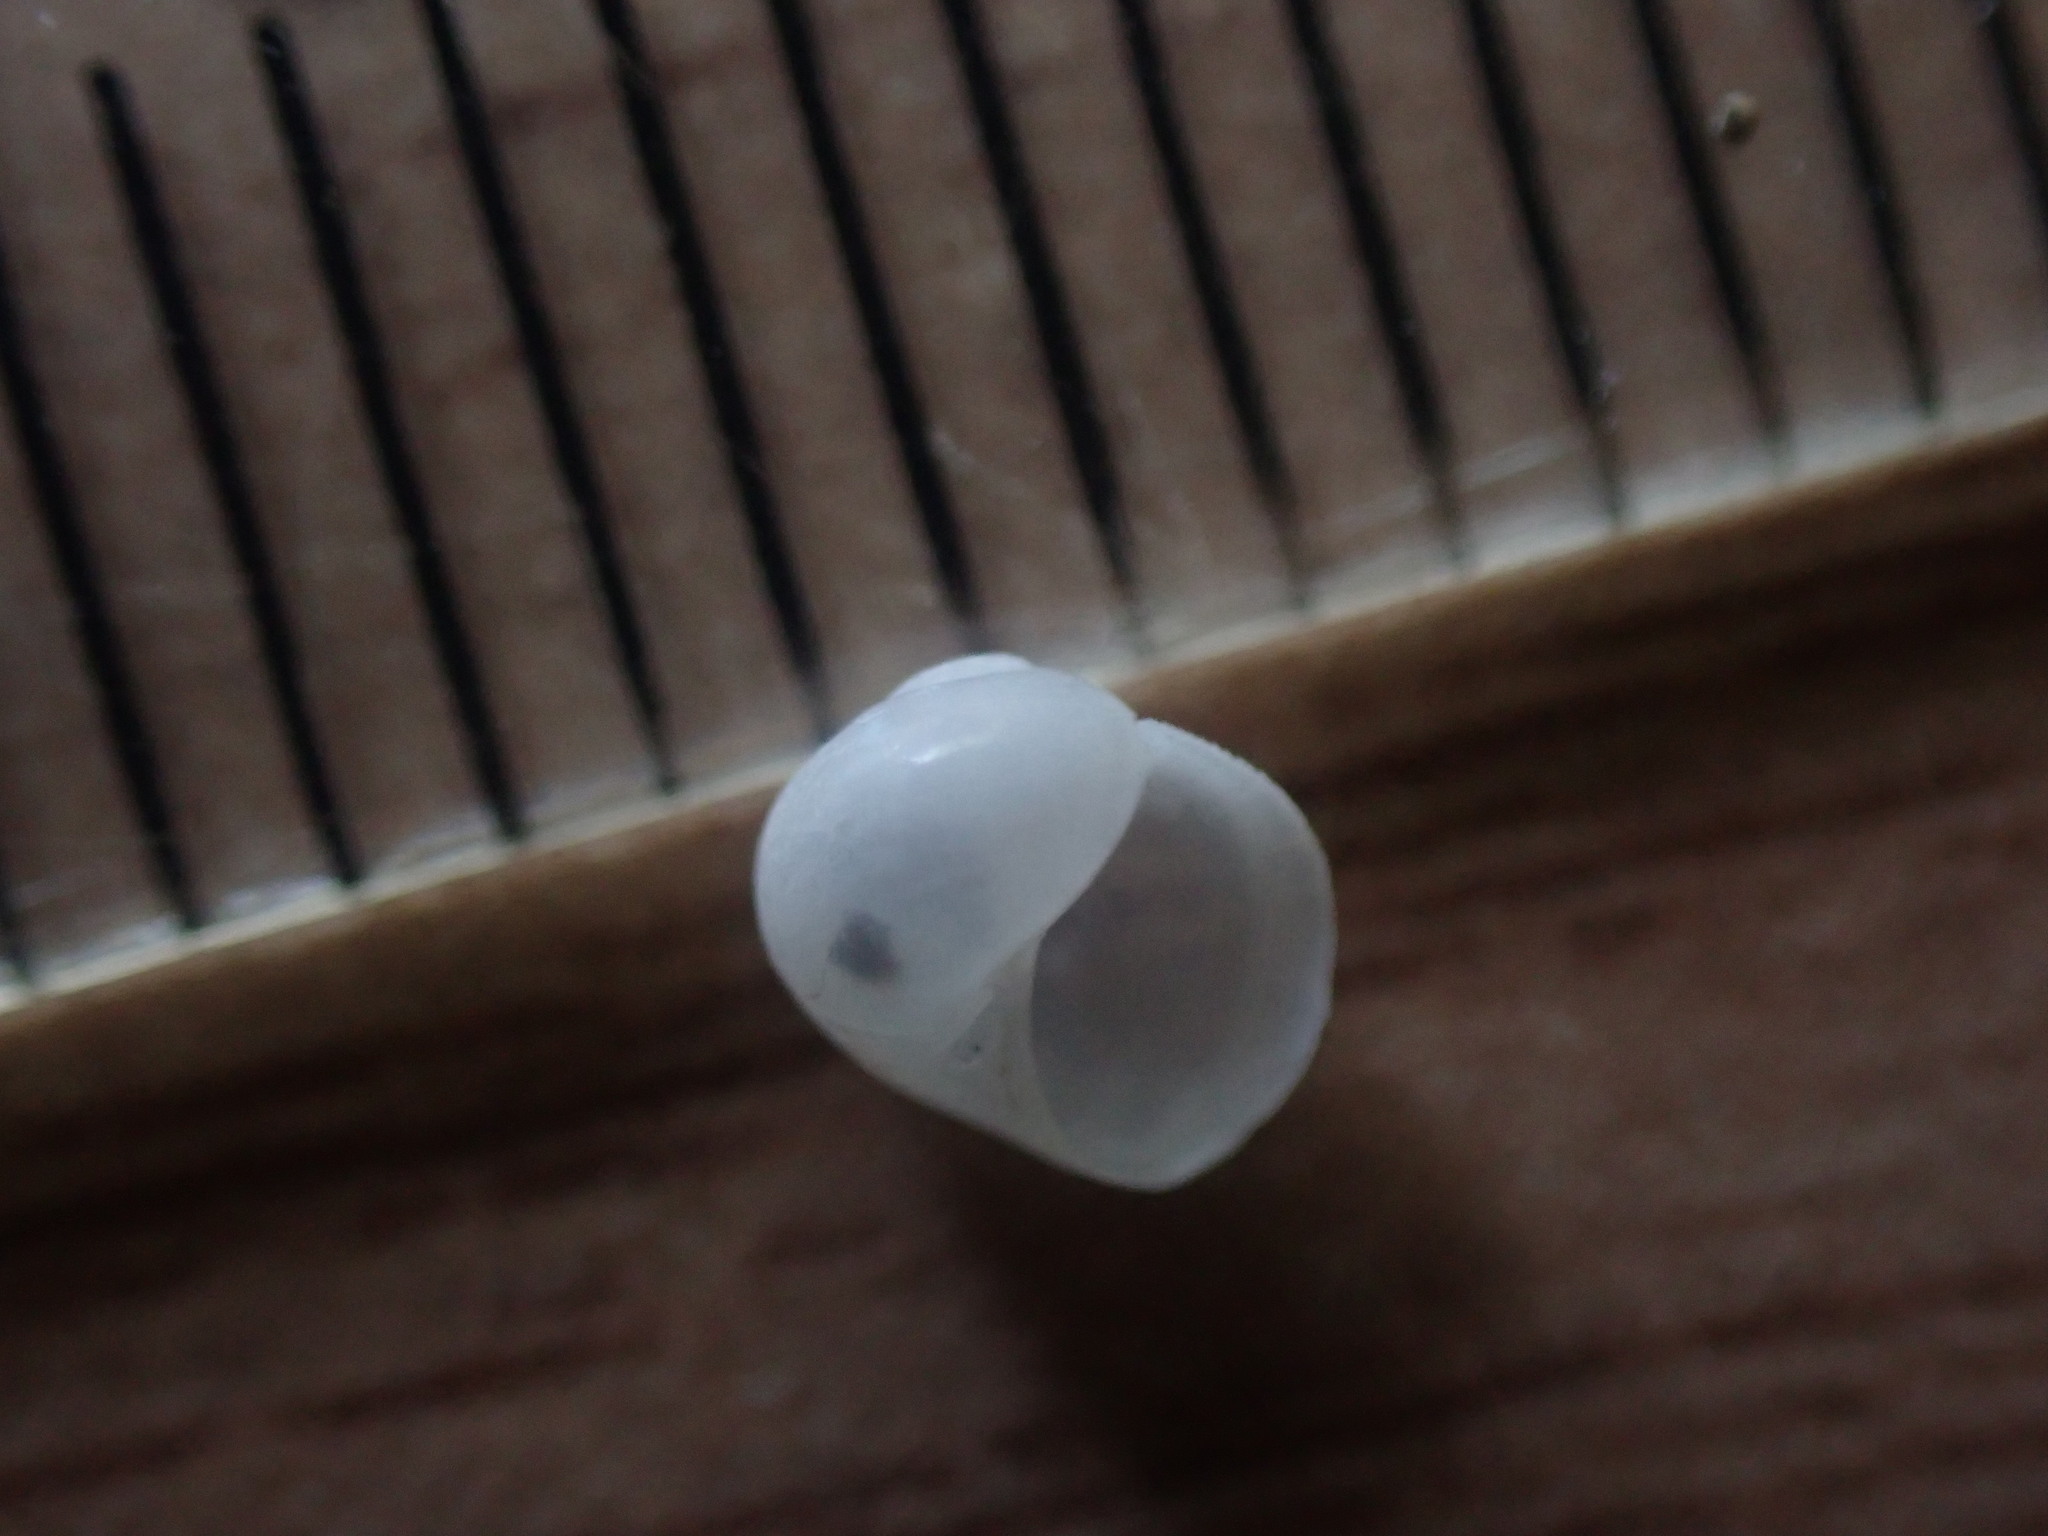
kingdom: Animalia
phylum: Mollusca
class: Gastropoda
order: Littorinimorpha
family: Naticidae
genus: Globisinum
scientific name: Globisinum drewi
